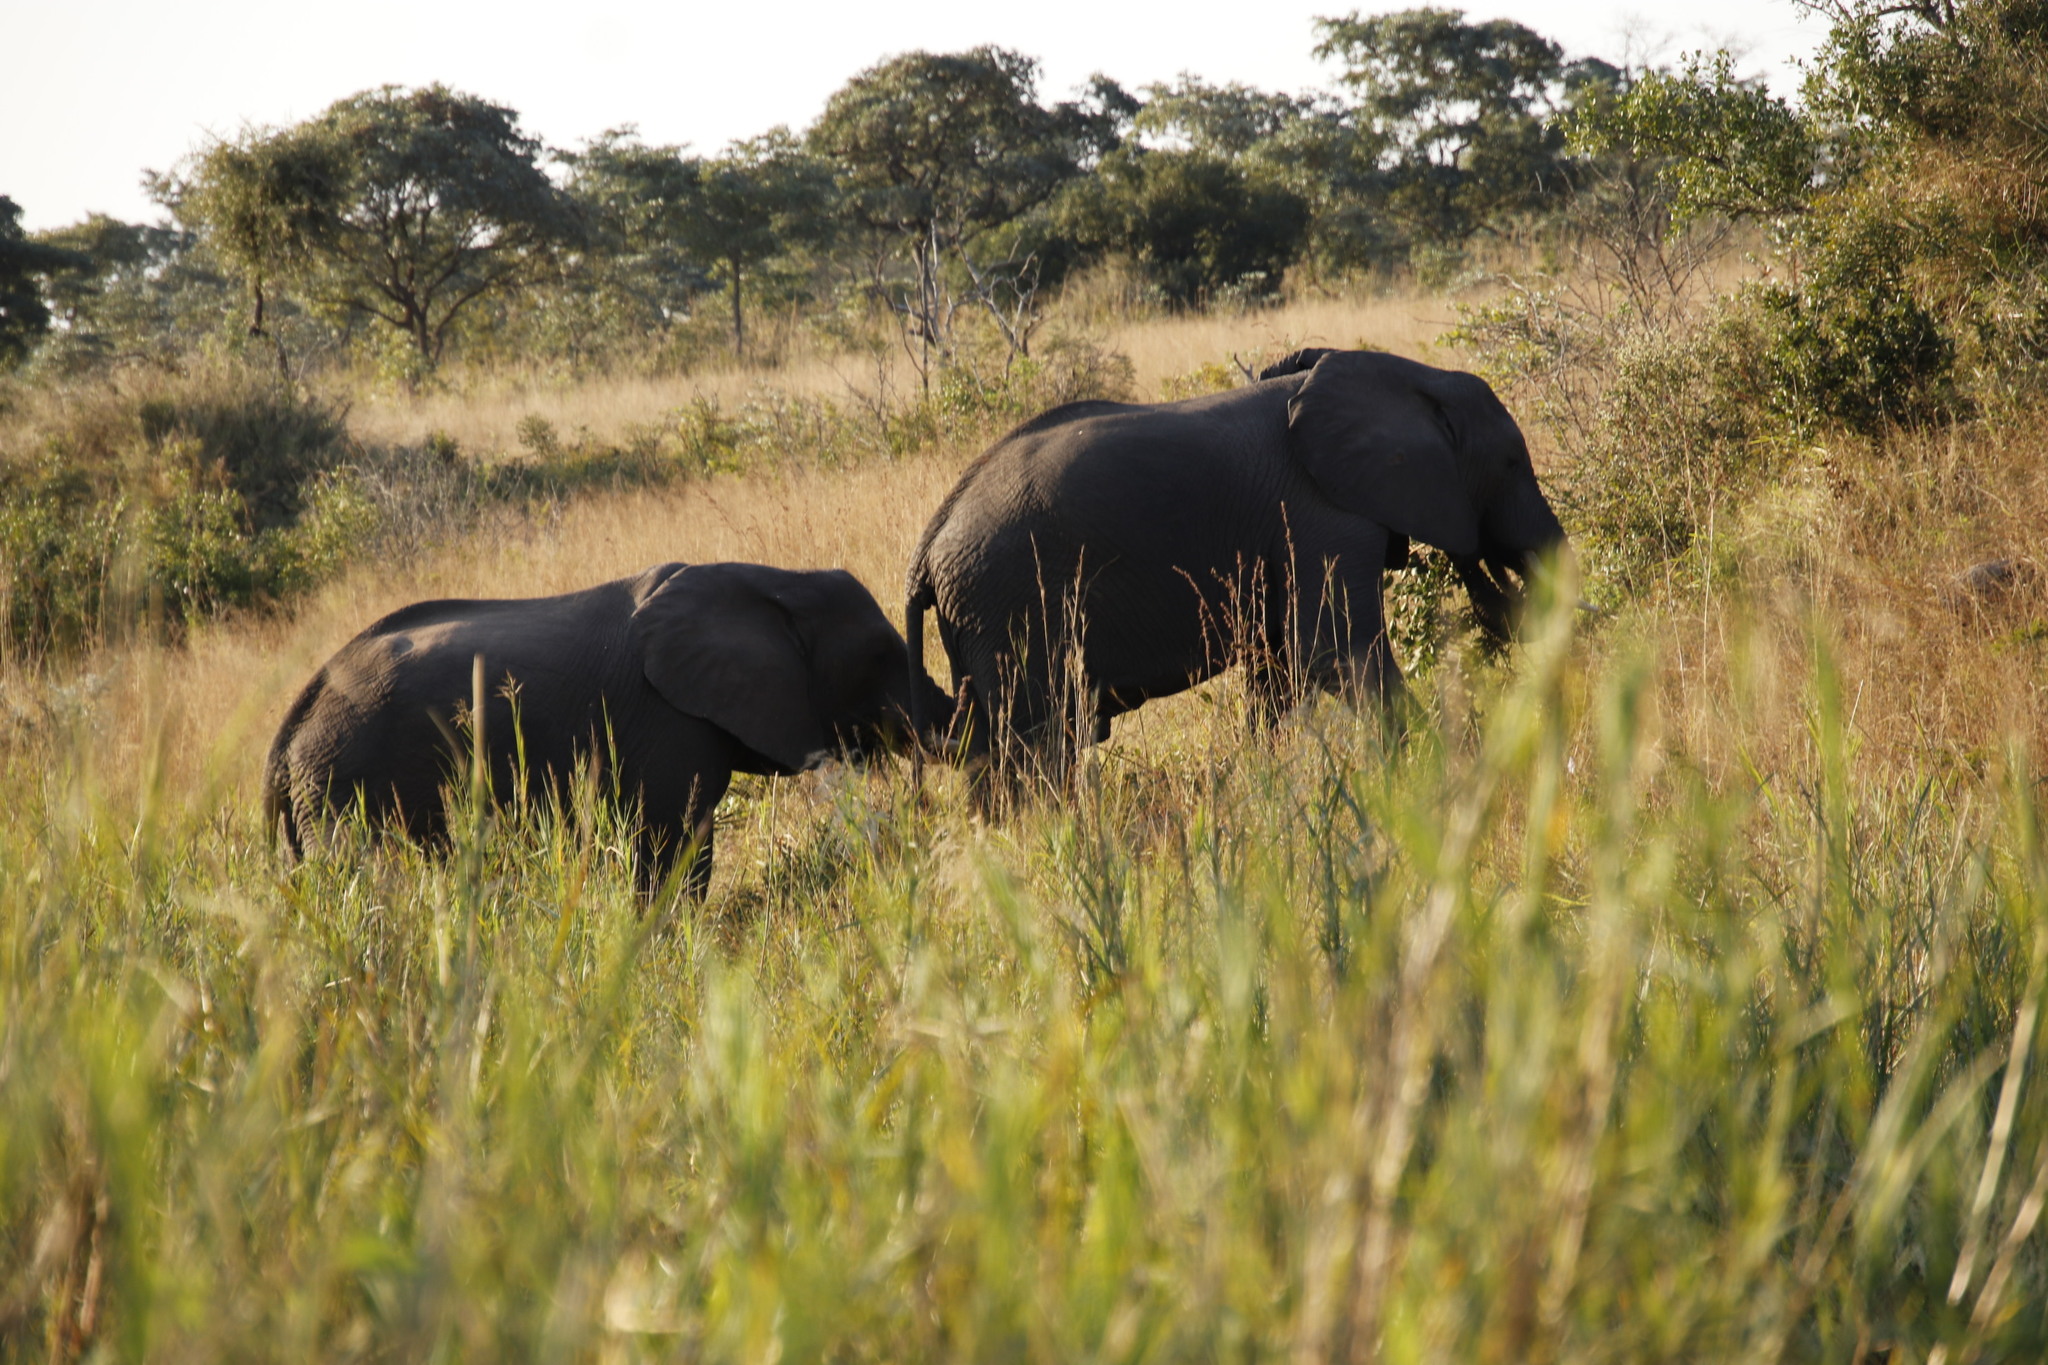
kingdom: Animalia
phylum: Chordata
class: Mammalia
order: Proboscidea
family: Elephantidae
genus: Loxodonta
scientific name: Loxodonta africana
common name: African elephant
